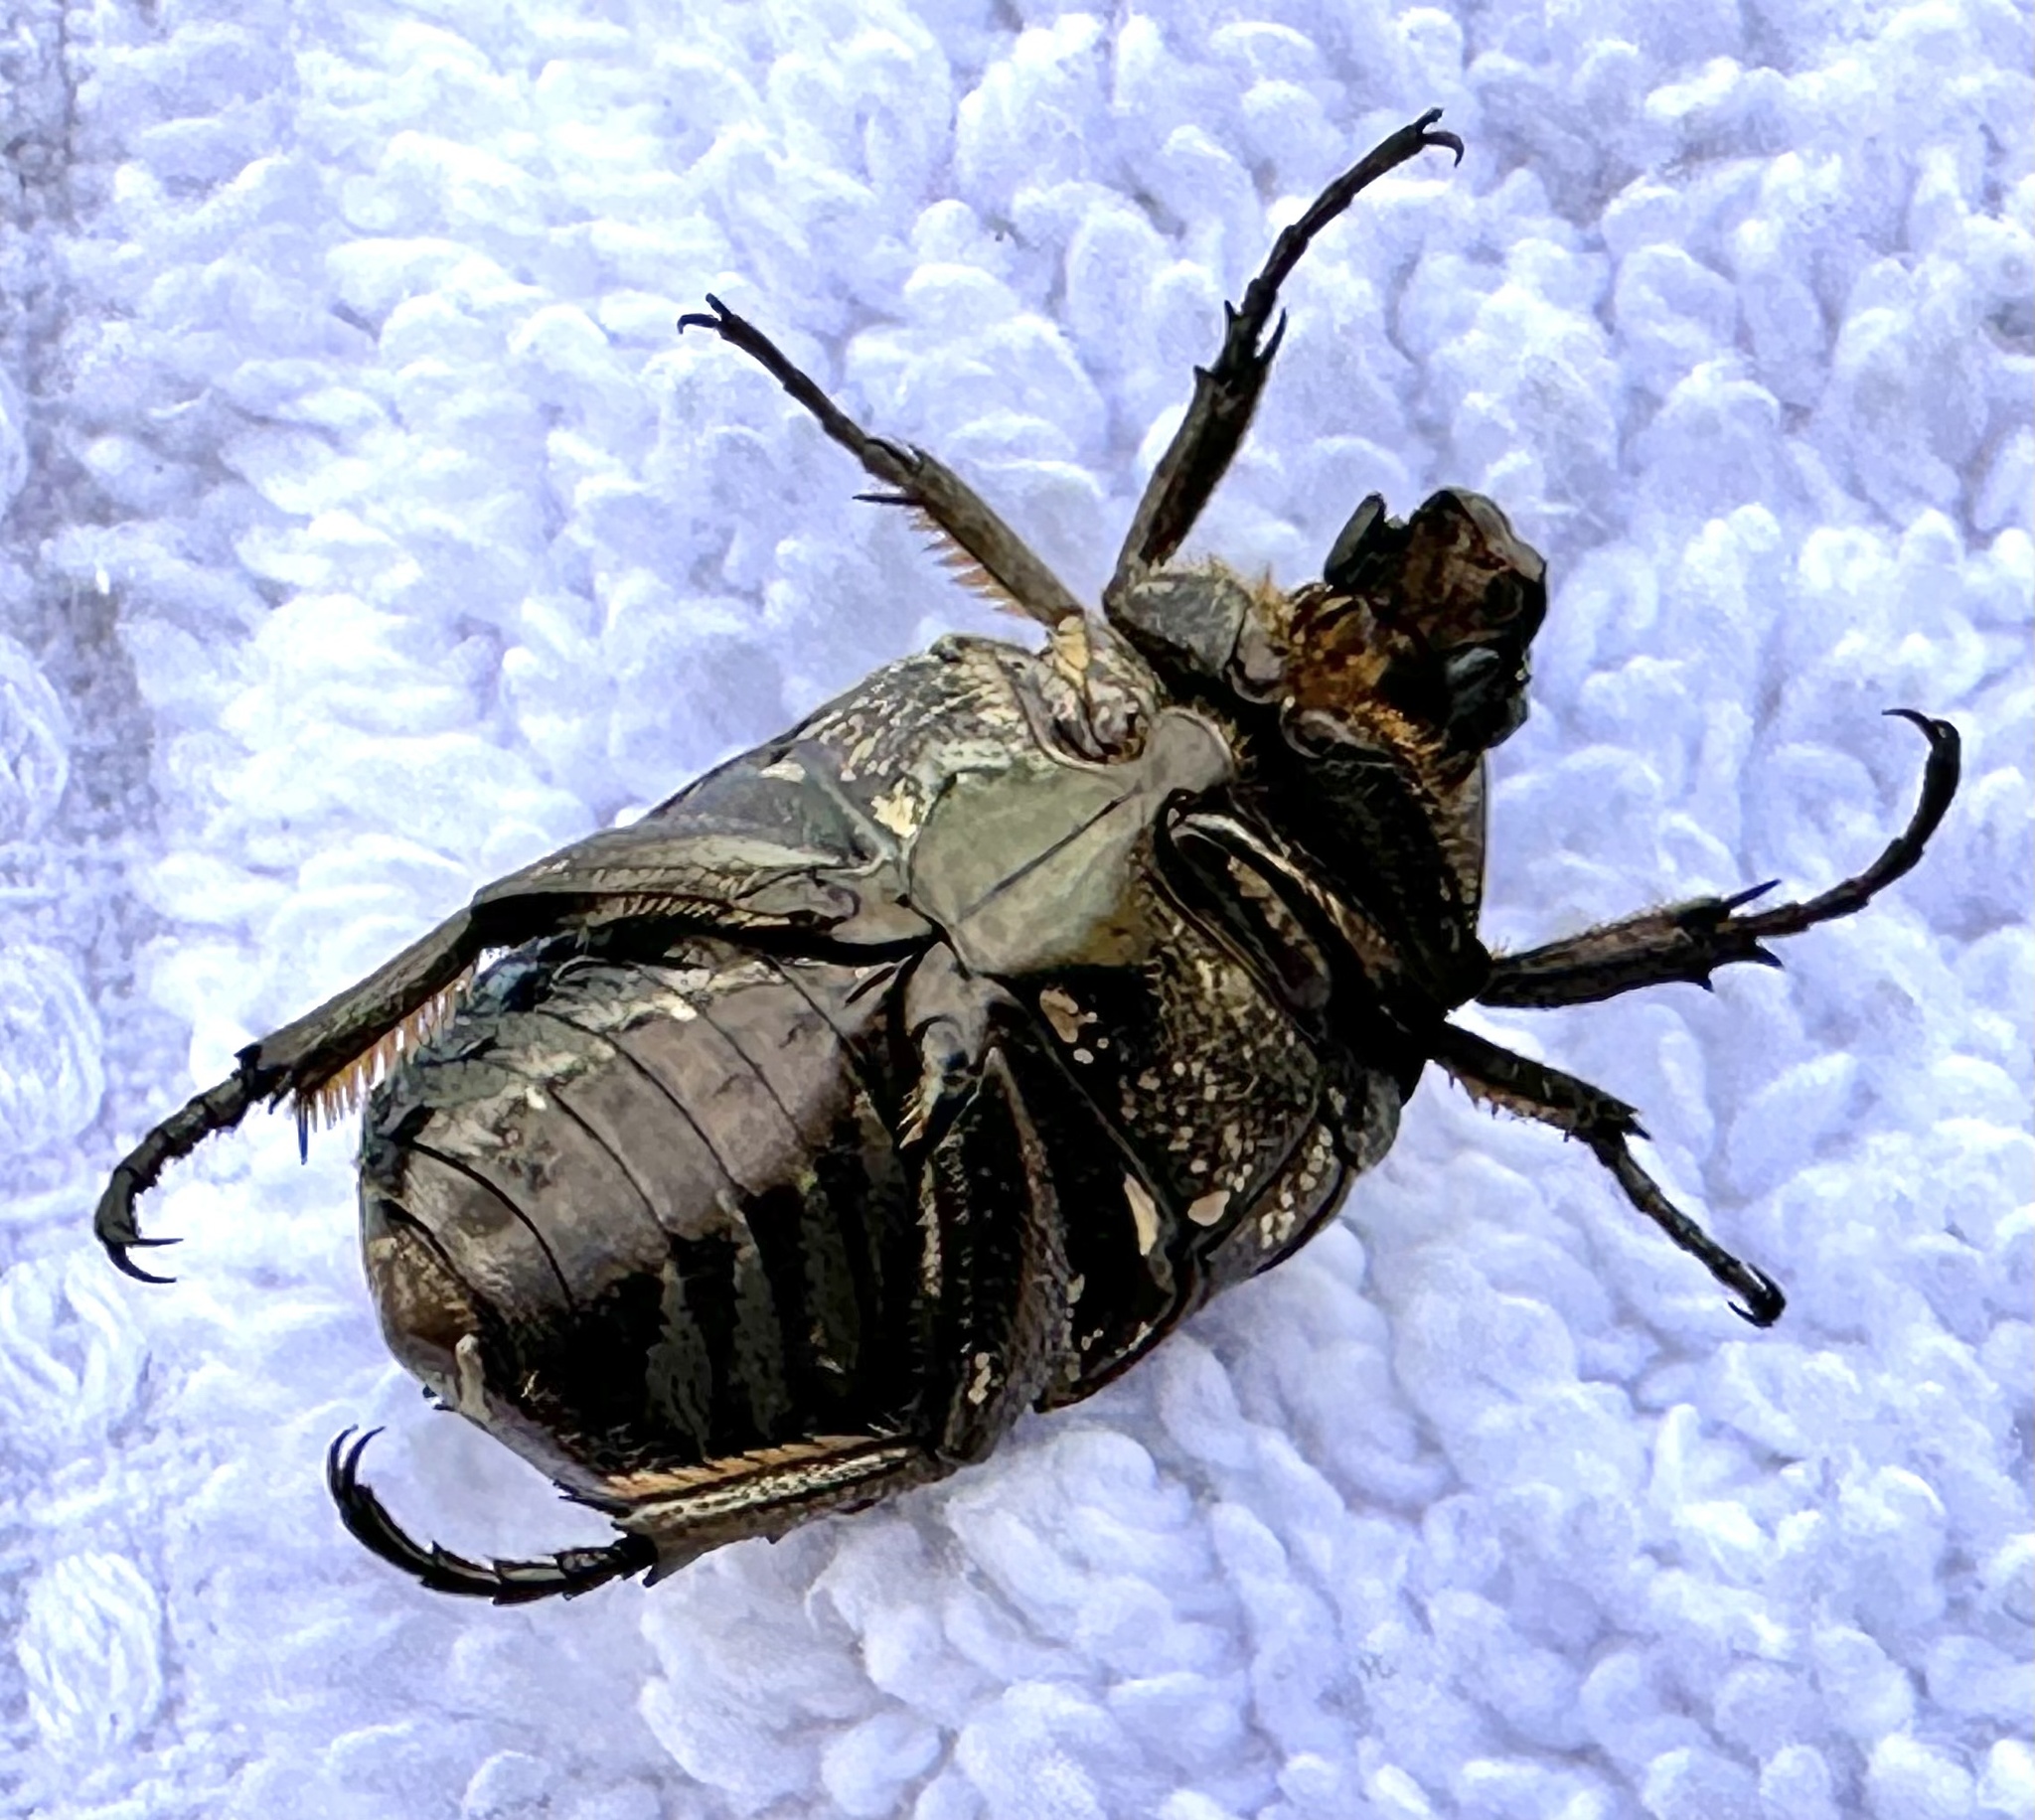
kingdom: Animalia
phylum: Arthropoda
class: Insecta
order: Coleoptera
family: Scarabaeidae
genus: Protaetia
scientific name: Protaetia orientalis
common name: Oriental flower beetle
